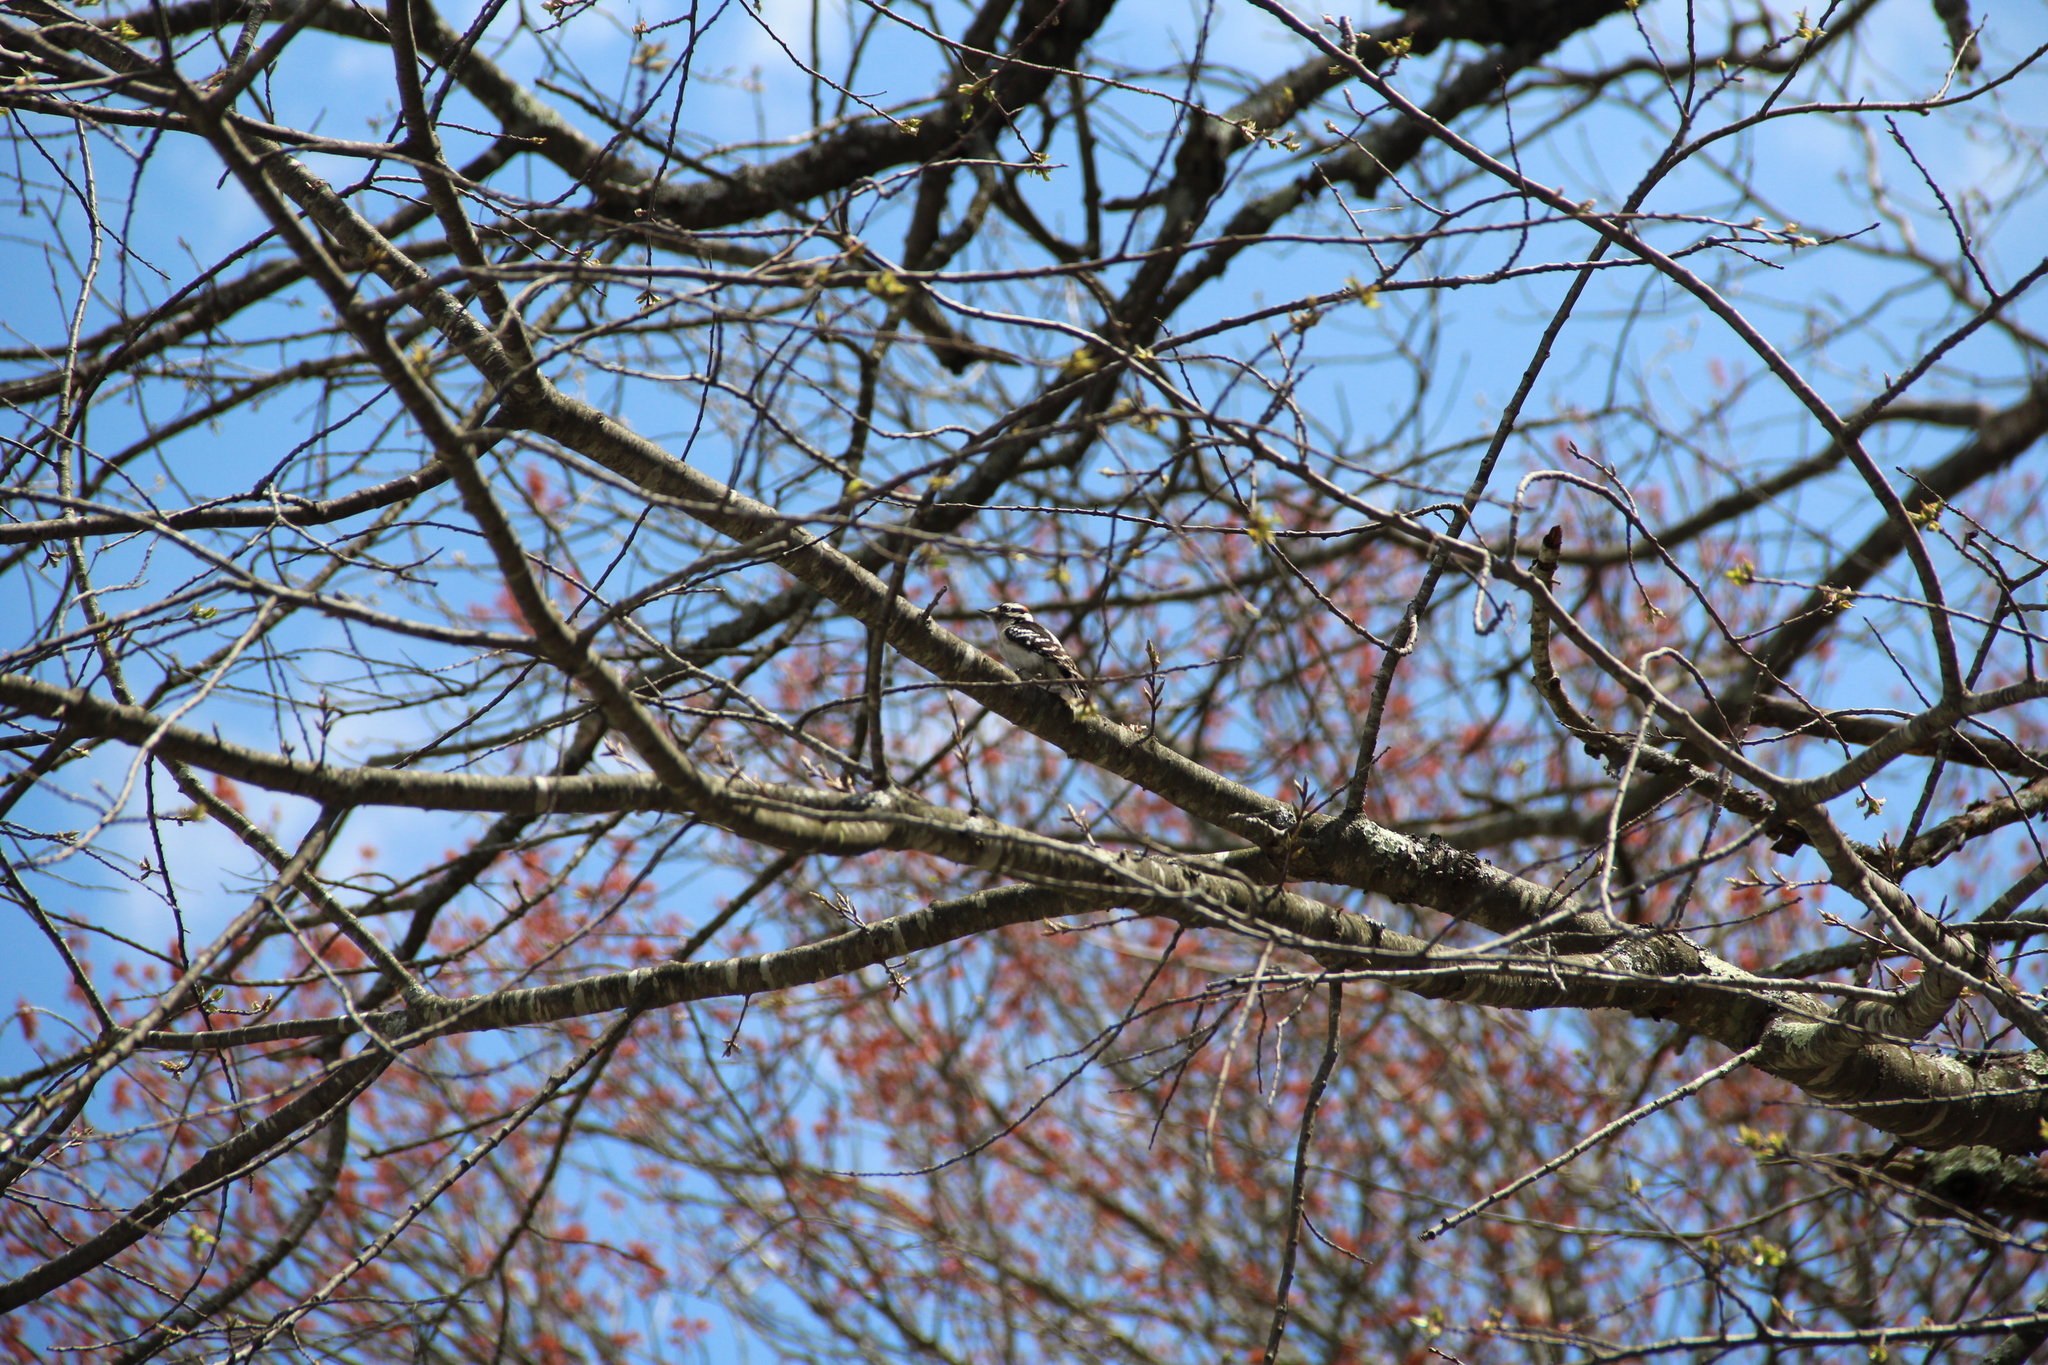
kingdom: Animalia
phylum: Chordata
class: Aves
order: Piciformes
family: Picidae
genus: Dryobates
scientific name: Dryobates pubescens
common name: Downy woodpecker
